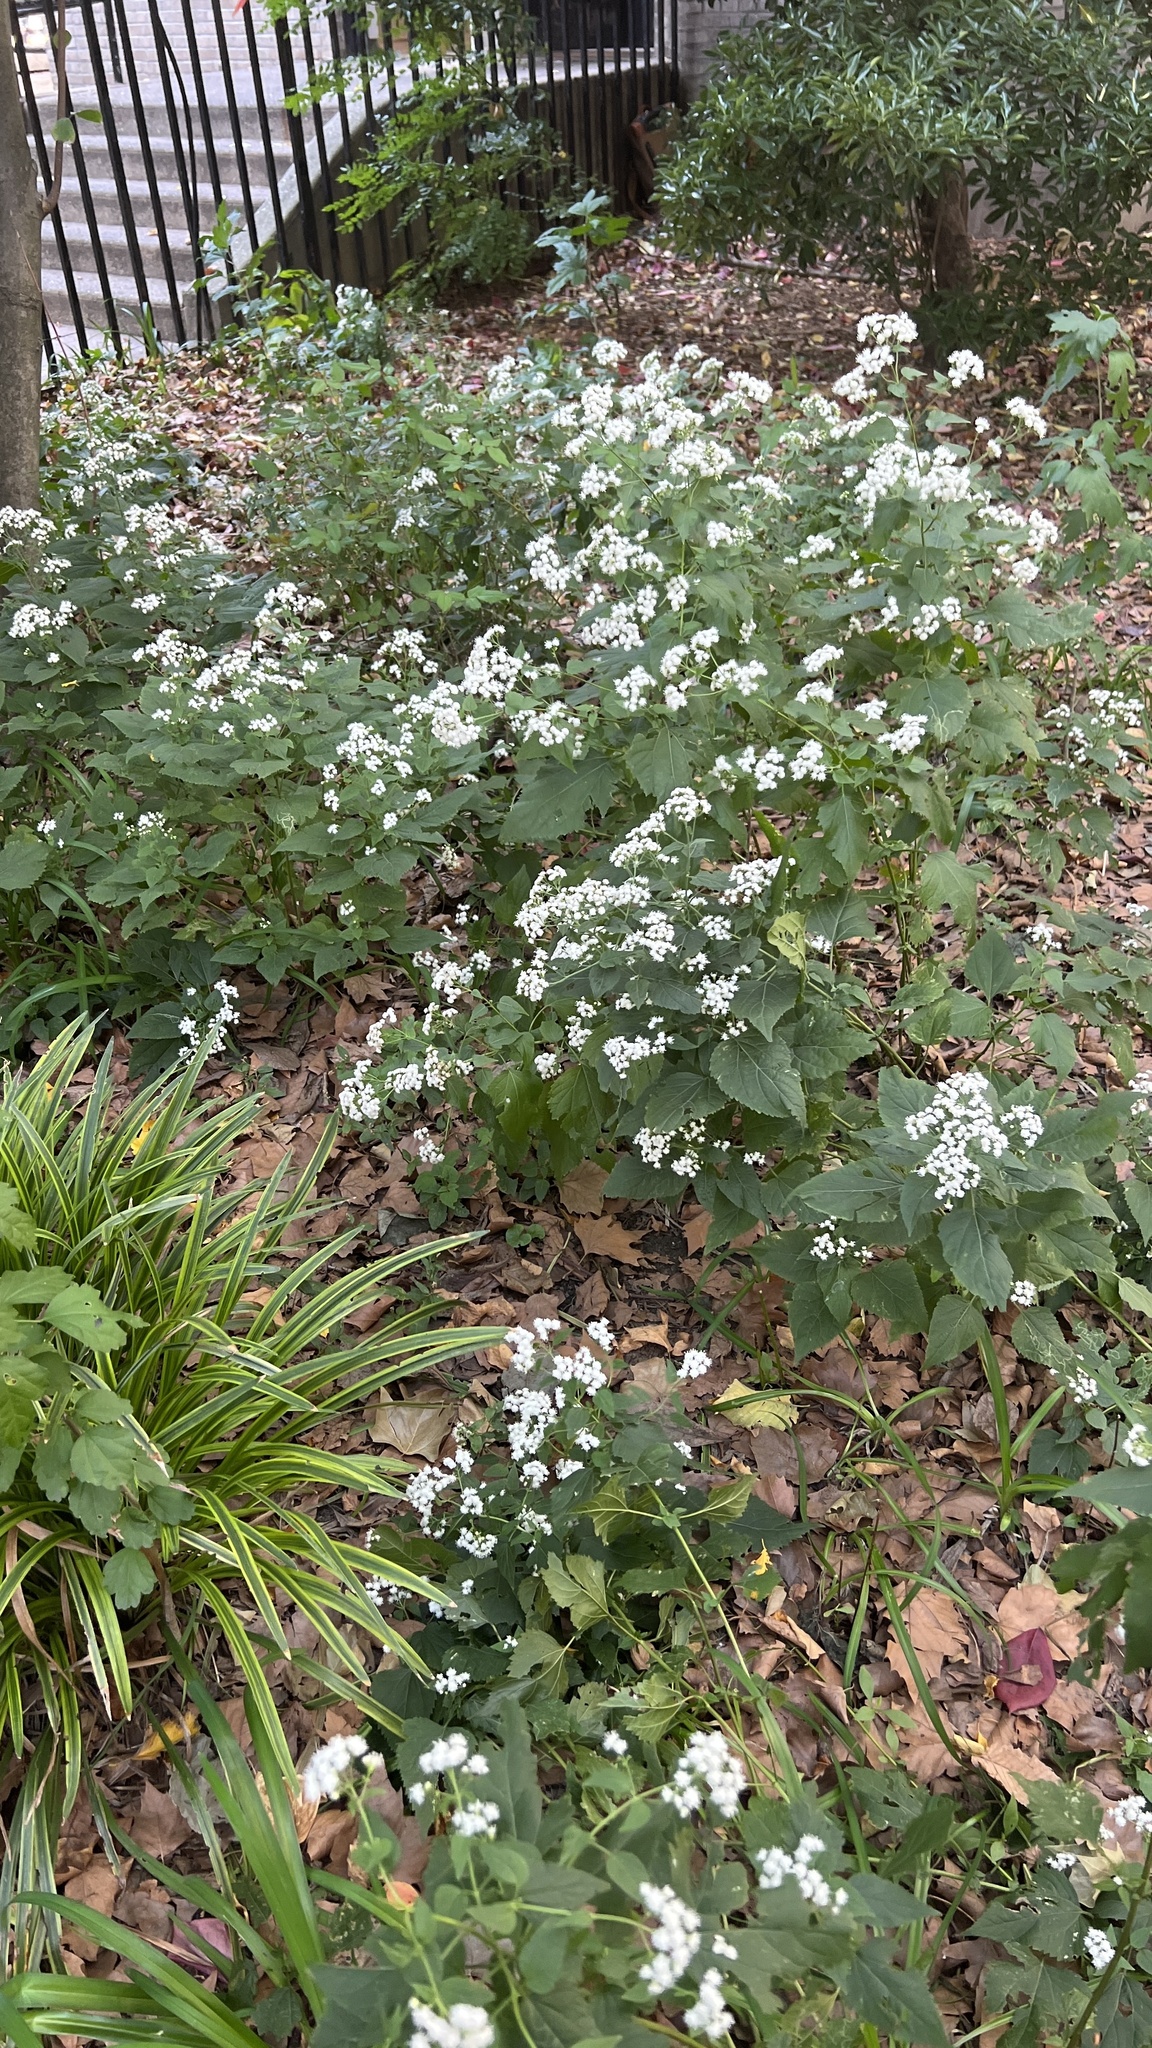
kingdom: Plantae
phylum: Tracheophyta
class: Magnoliopsida
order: Asterales
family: Asteraceae
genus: Ageratina
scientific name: Ageratina altissima
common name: White snakeroot
